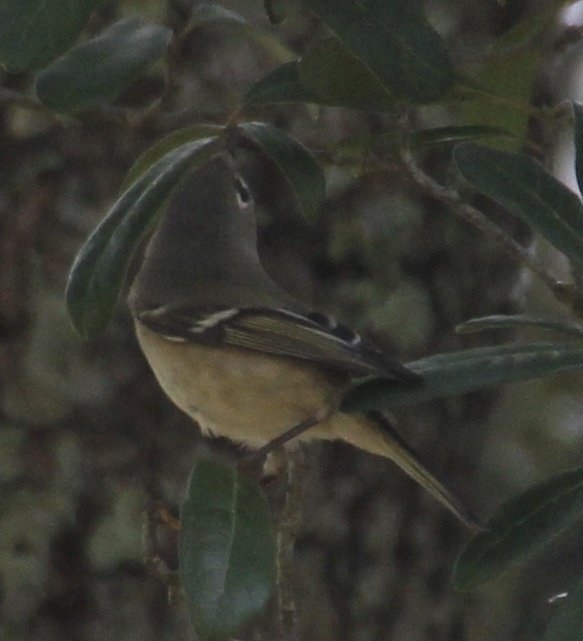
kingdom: Animalia
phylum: Chordata
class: Aves
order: Passeriformes
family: Regulidae
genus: Regulus
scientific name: Regulus calendula
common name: Ruby-crowned kinglet
